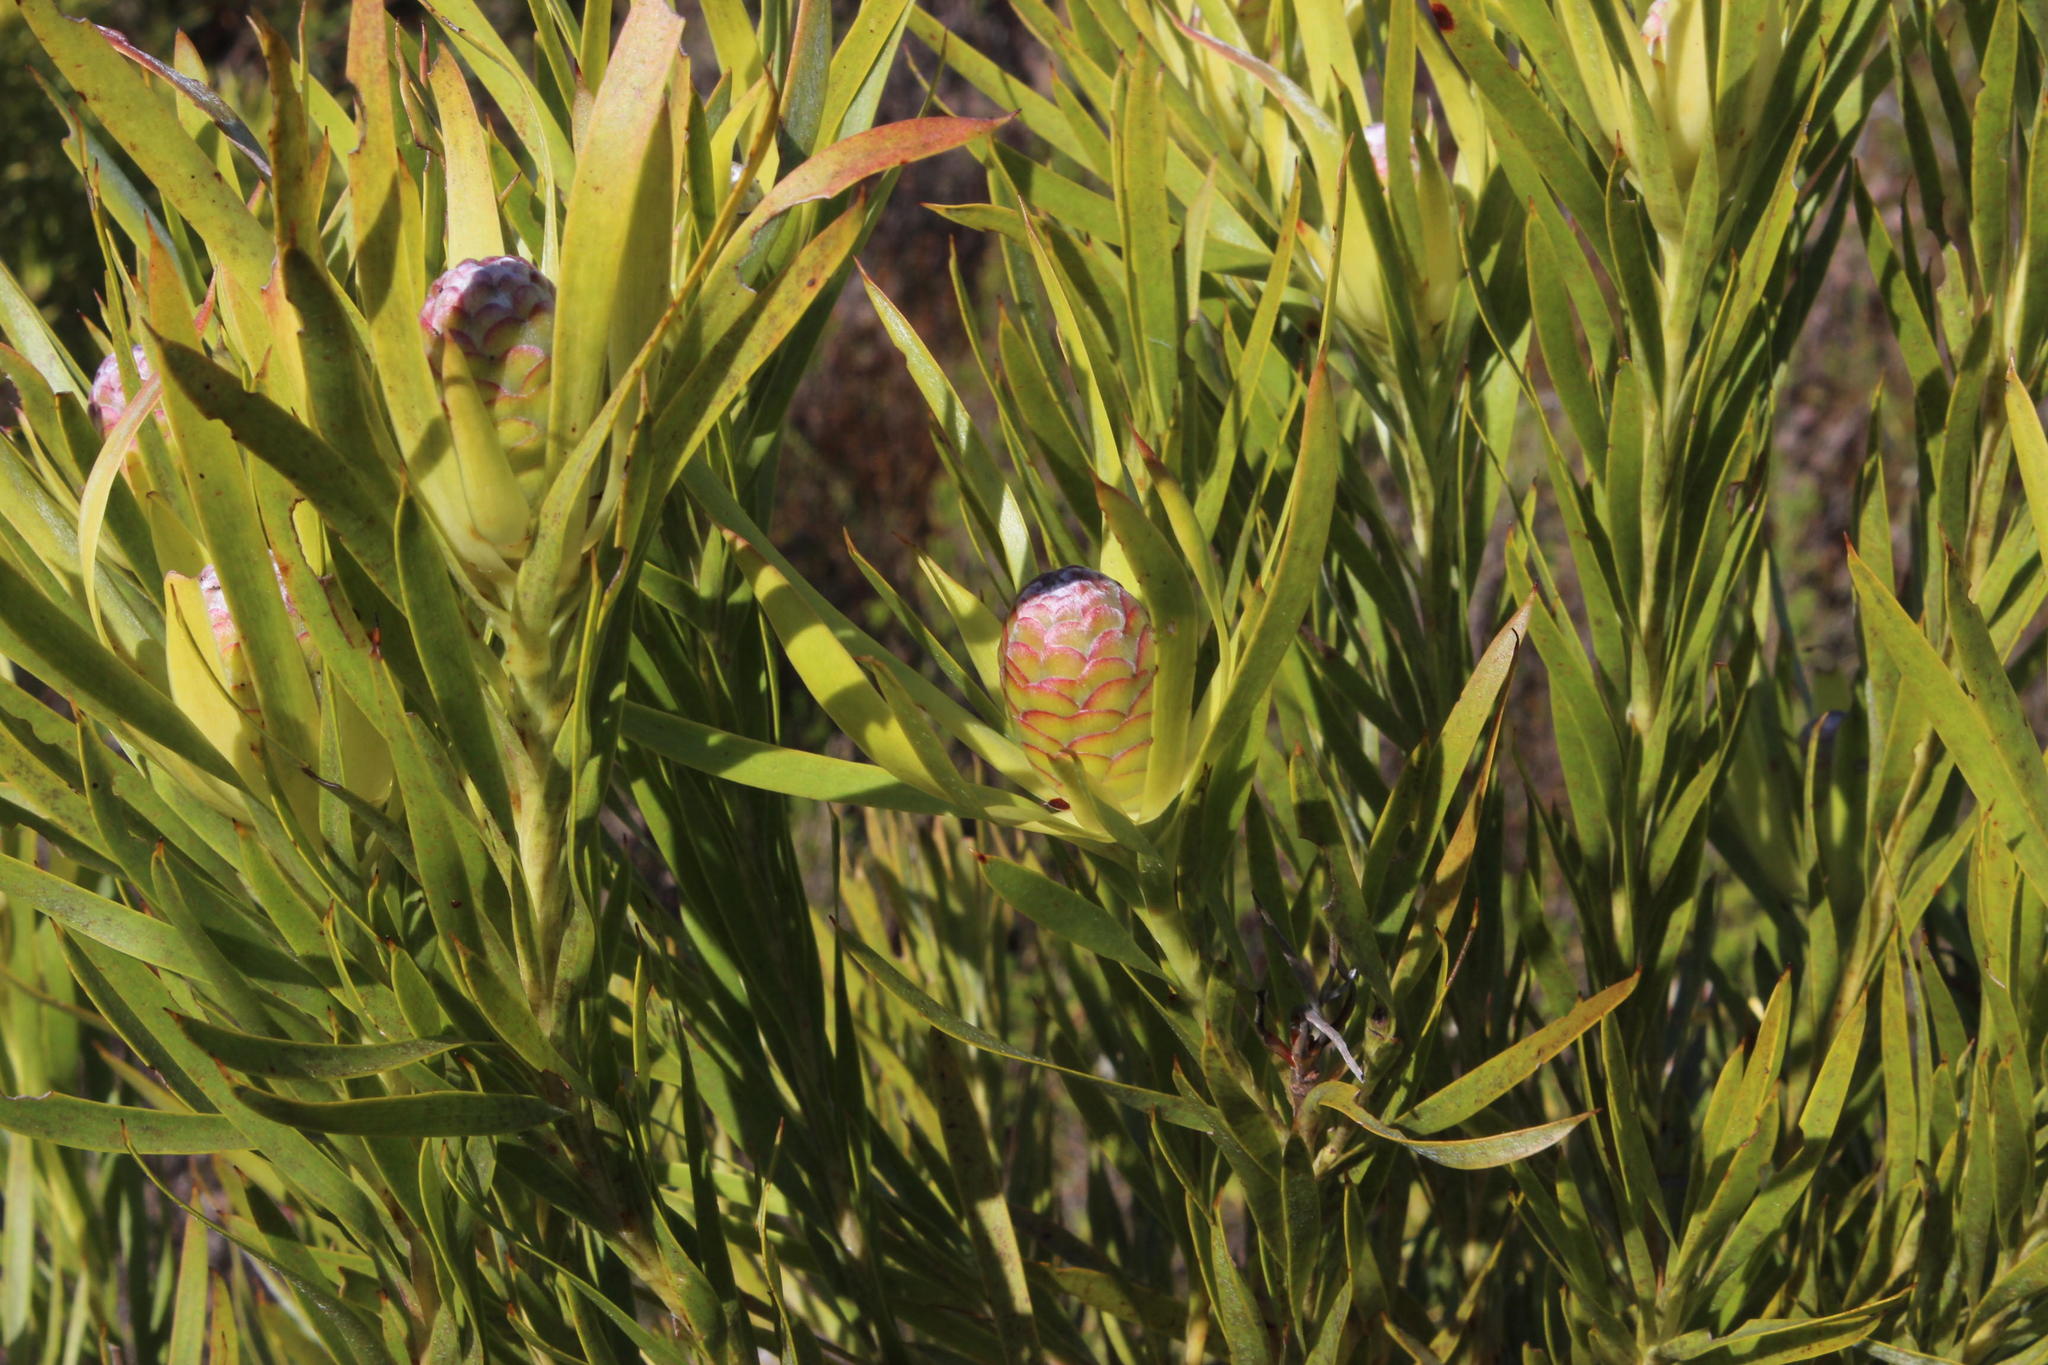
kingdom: Plantae
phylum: Tracheophyta
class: Magnoliopsida
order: Proteales
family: Proteaceae
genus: Leucadendron
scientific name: Leucadendron xanthoconus
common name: Sickle-leaf conebush
